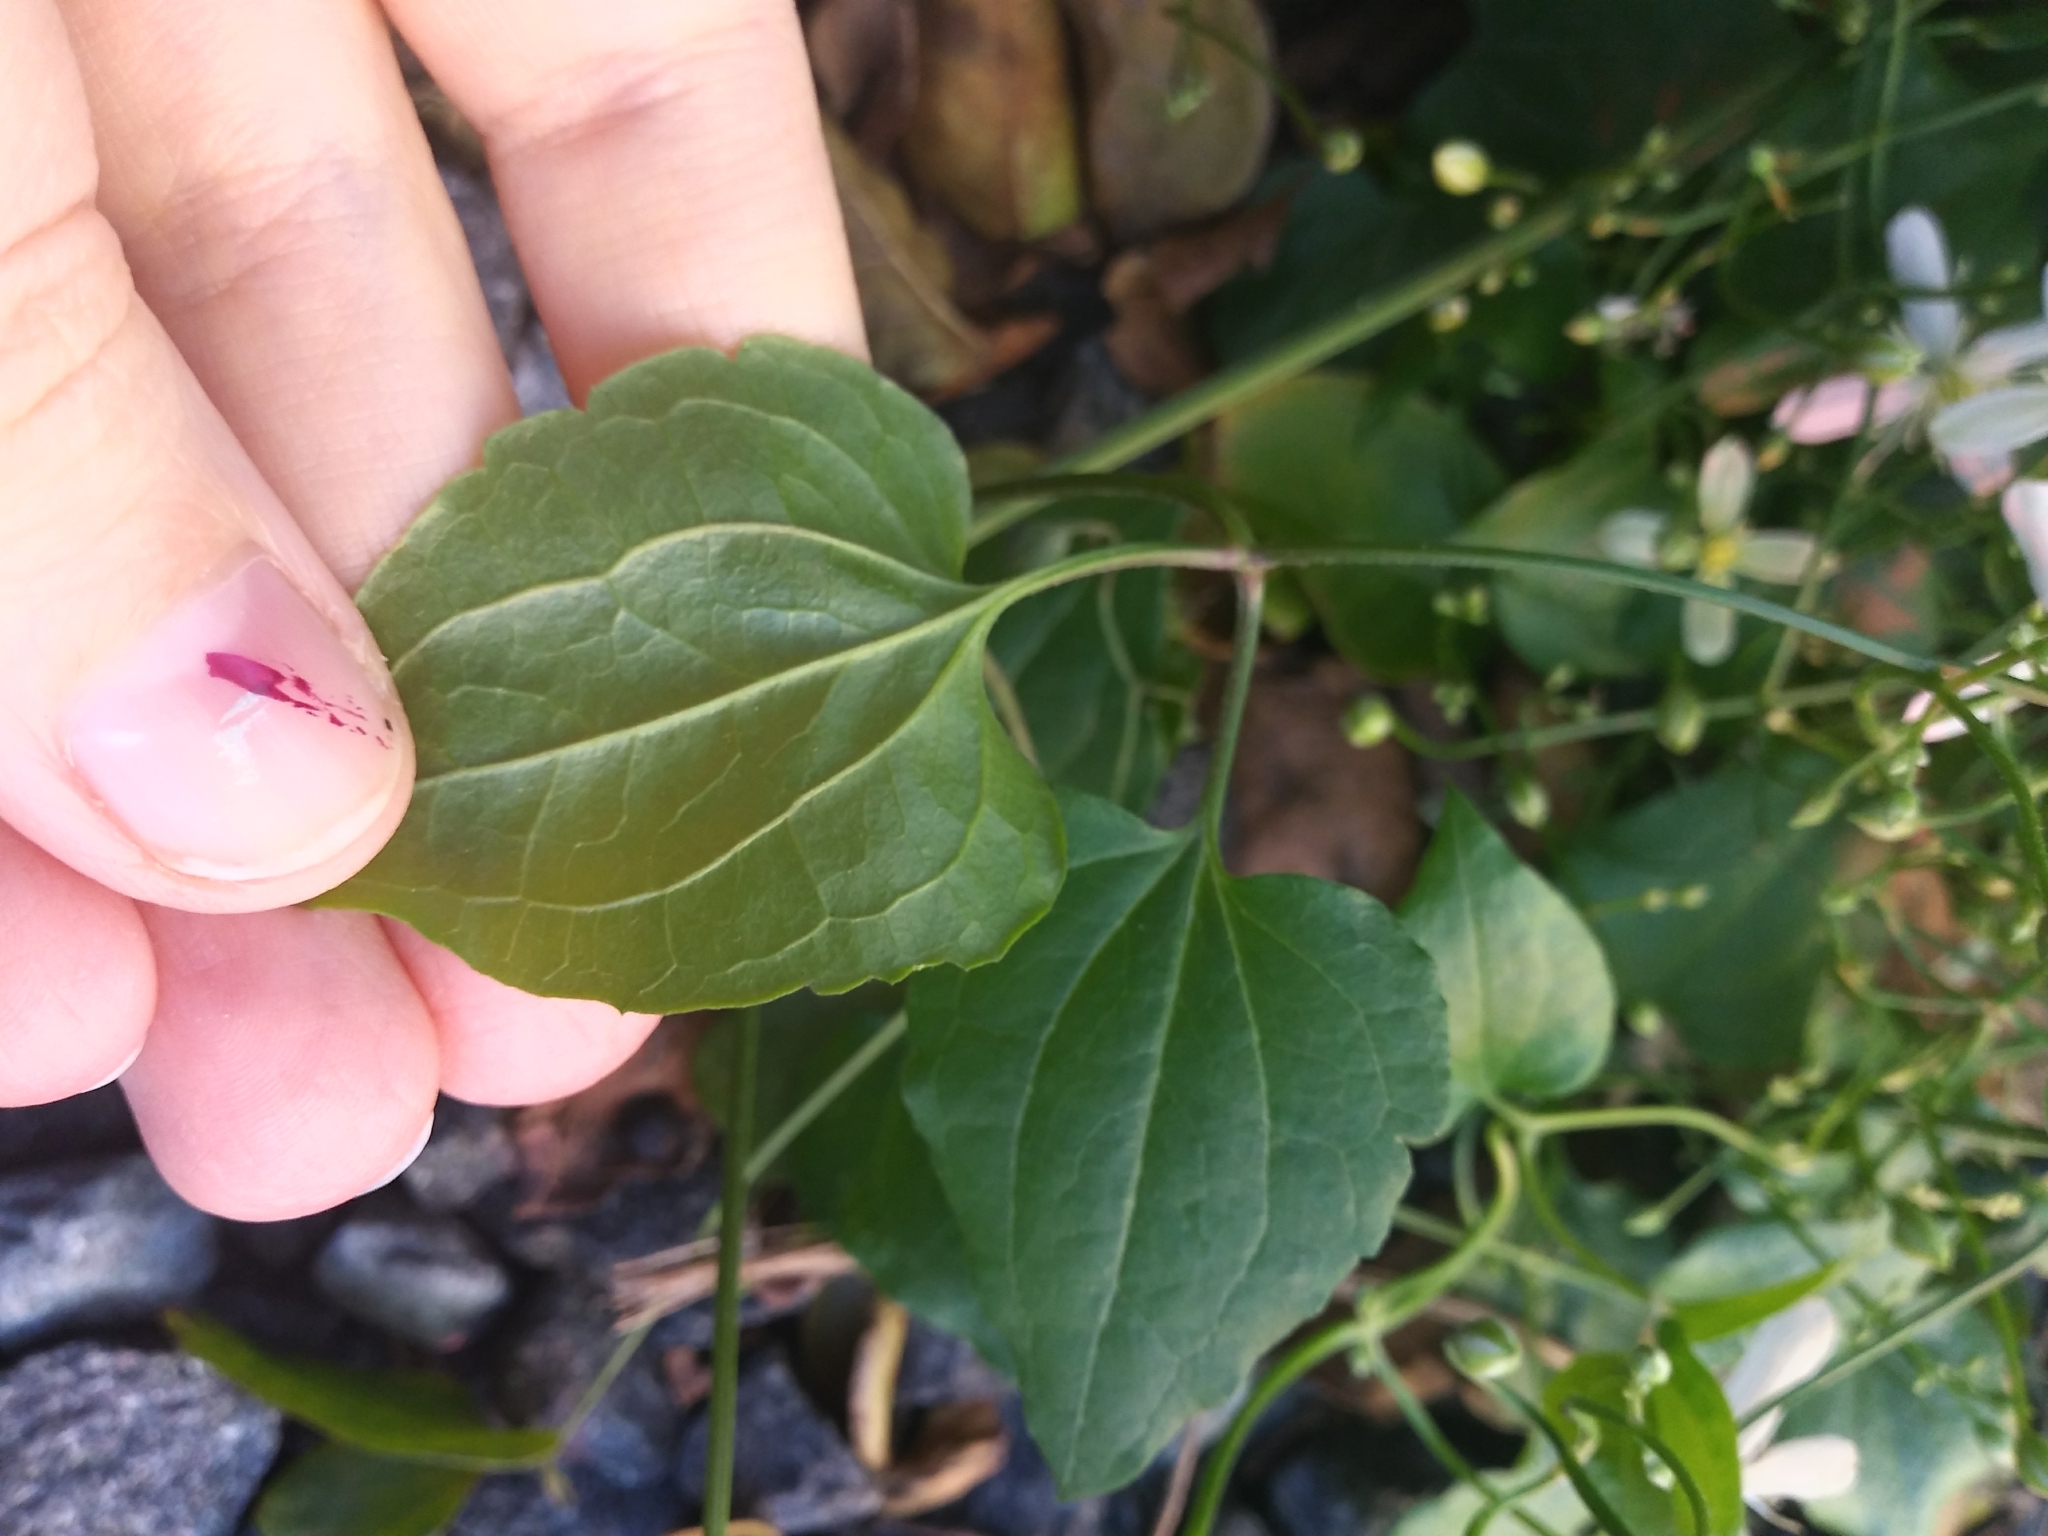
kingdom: Plantae
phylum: Tracheophyta
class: Magnoliopsida
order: Ranunculales
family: Ranunculaceae
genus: Clematis
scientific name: Clematis terniflora
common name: Sweet autumn clematis
